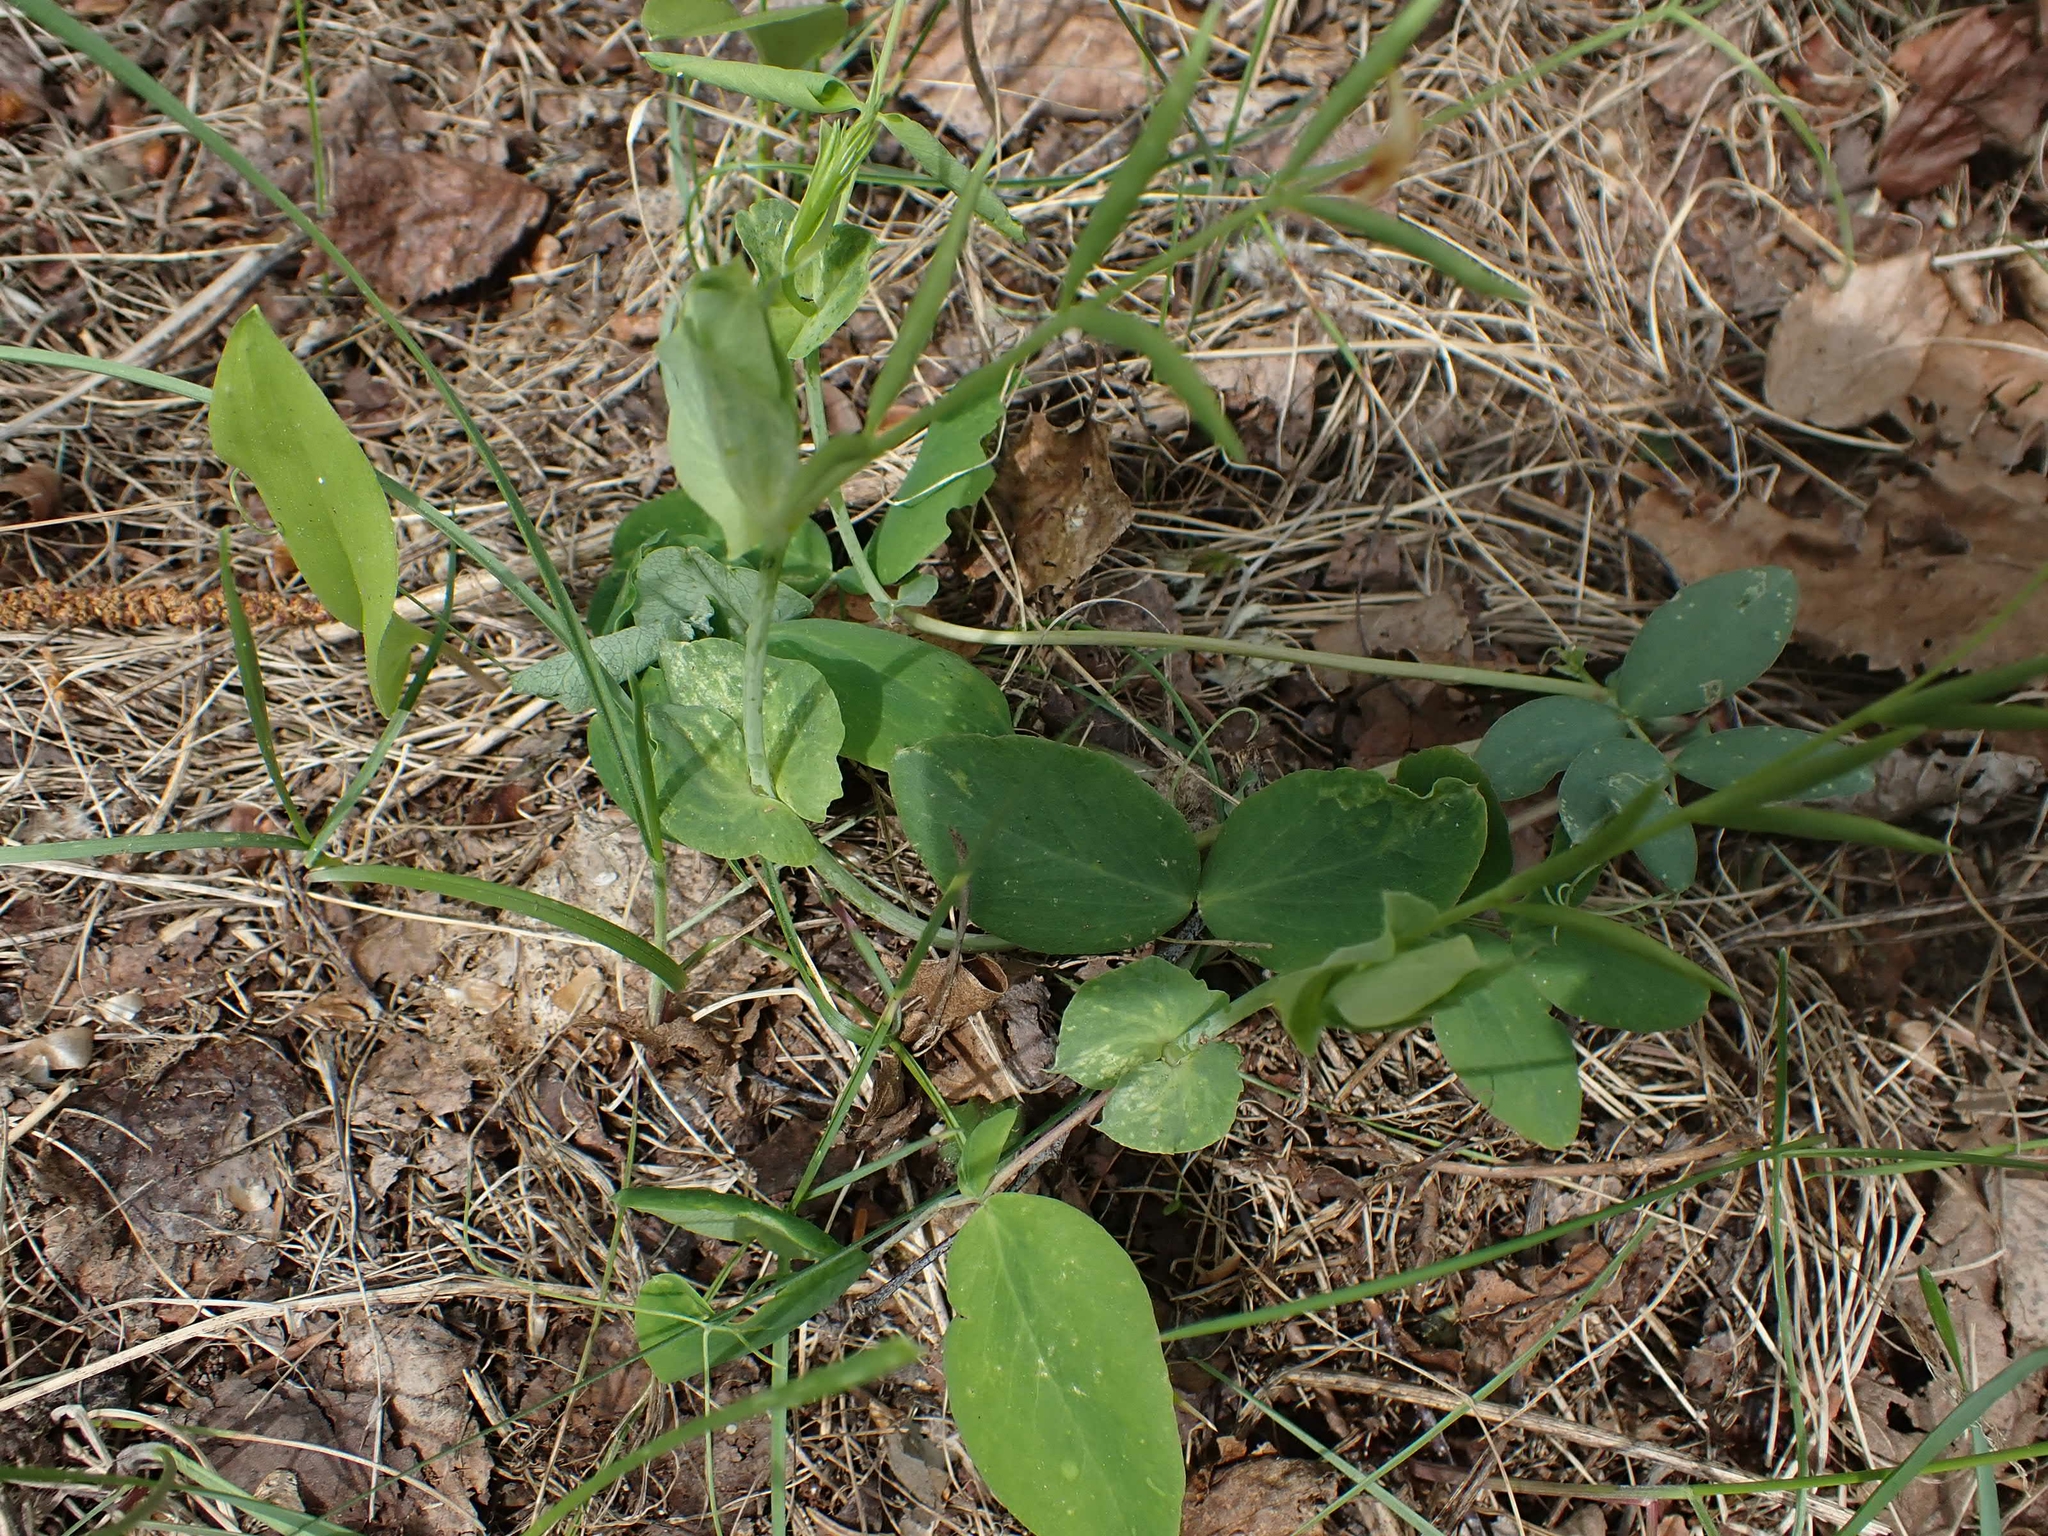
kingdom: Plantae
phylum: Tracheophyta
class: Magnoliopsida
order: Fabales
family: Fabaceae
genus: Lathyrus
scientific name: Lathyrus ochroleucus
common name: Pale vetchling
